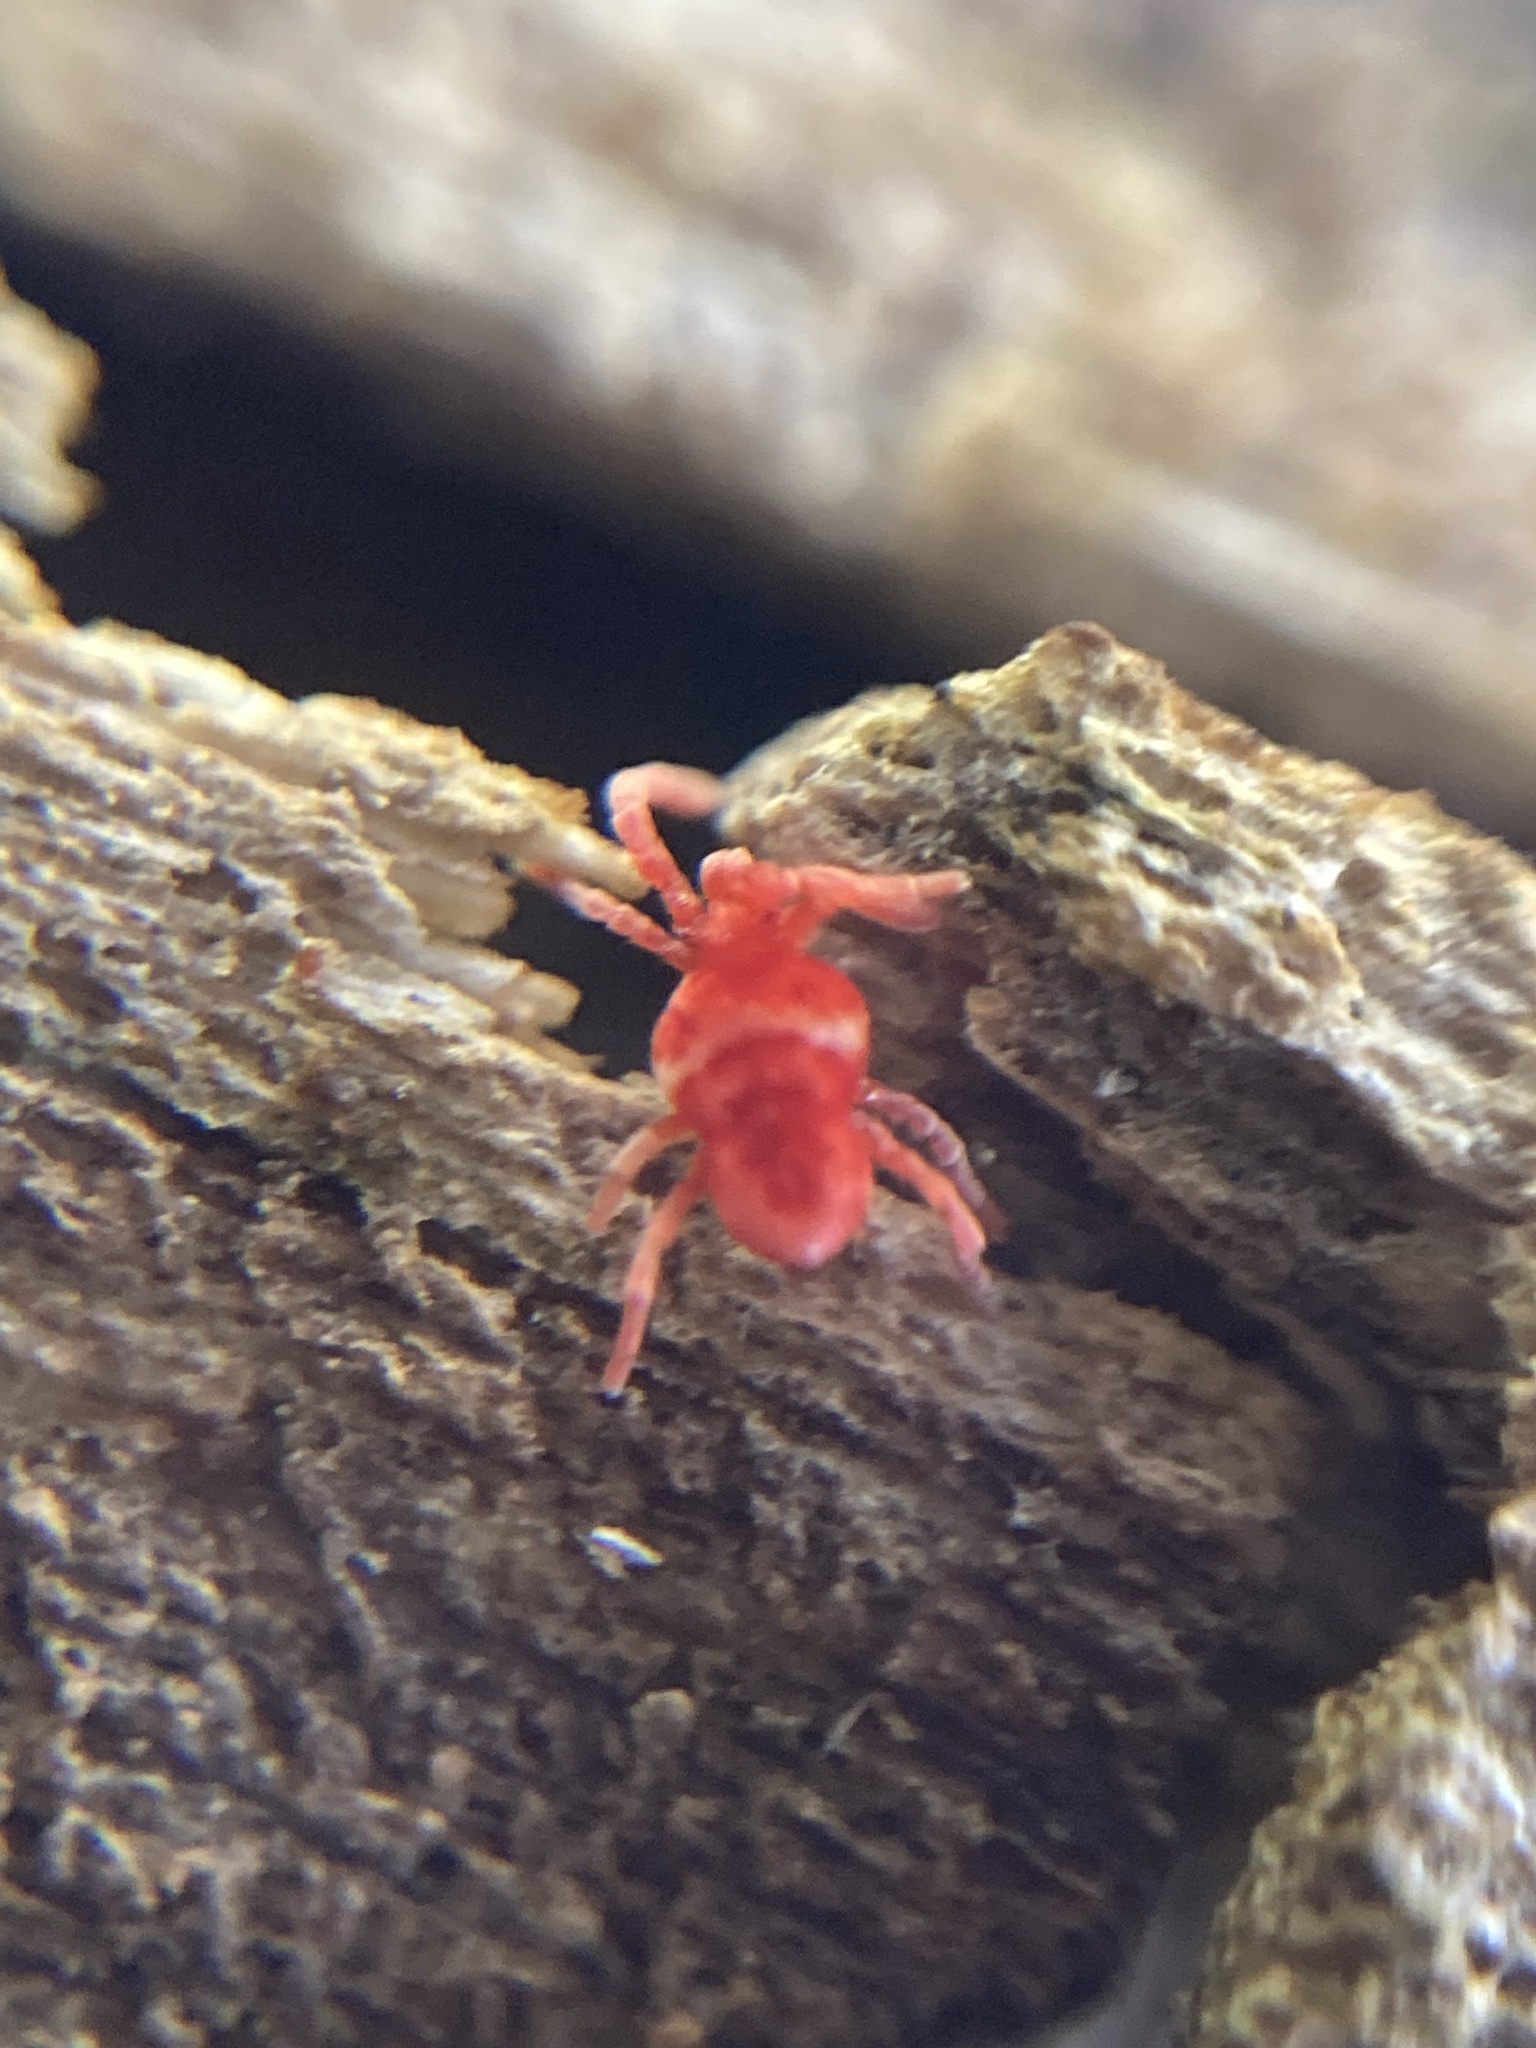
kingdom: Animalia
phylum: Arthropoda
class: Arachnida
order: Trombidiformes
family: Trombidiidae
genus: Paratrombium
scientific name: Paratrombium
